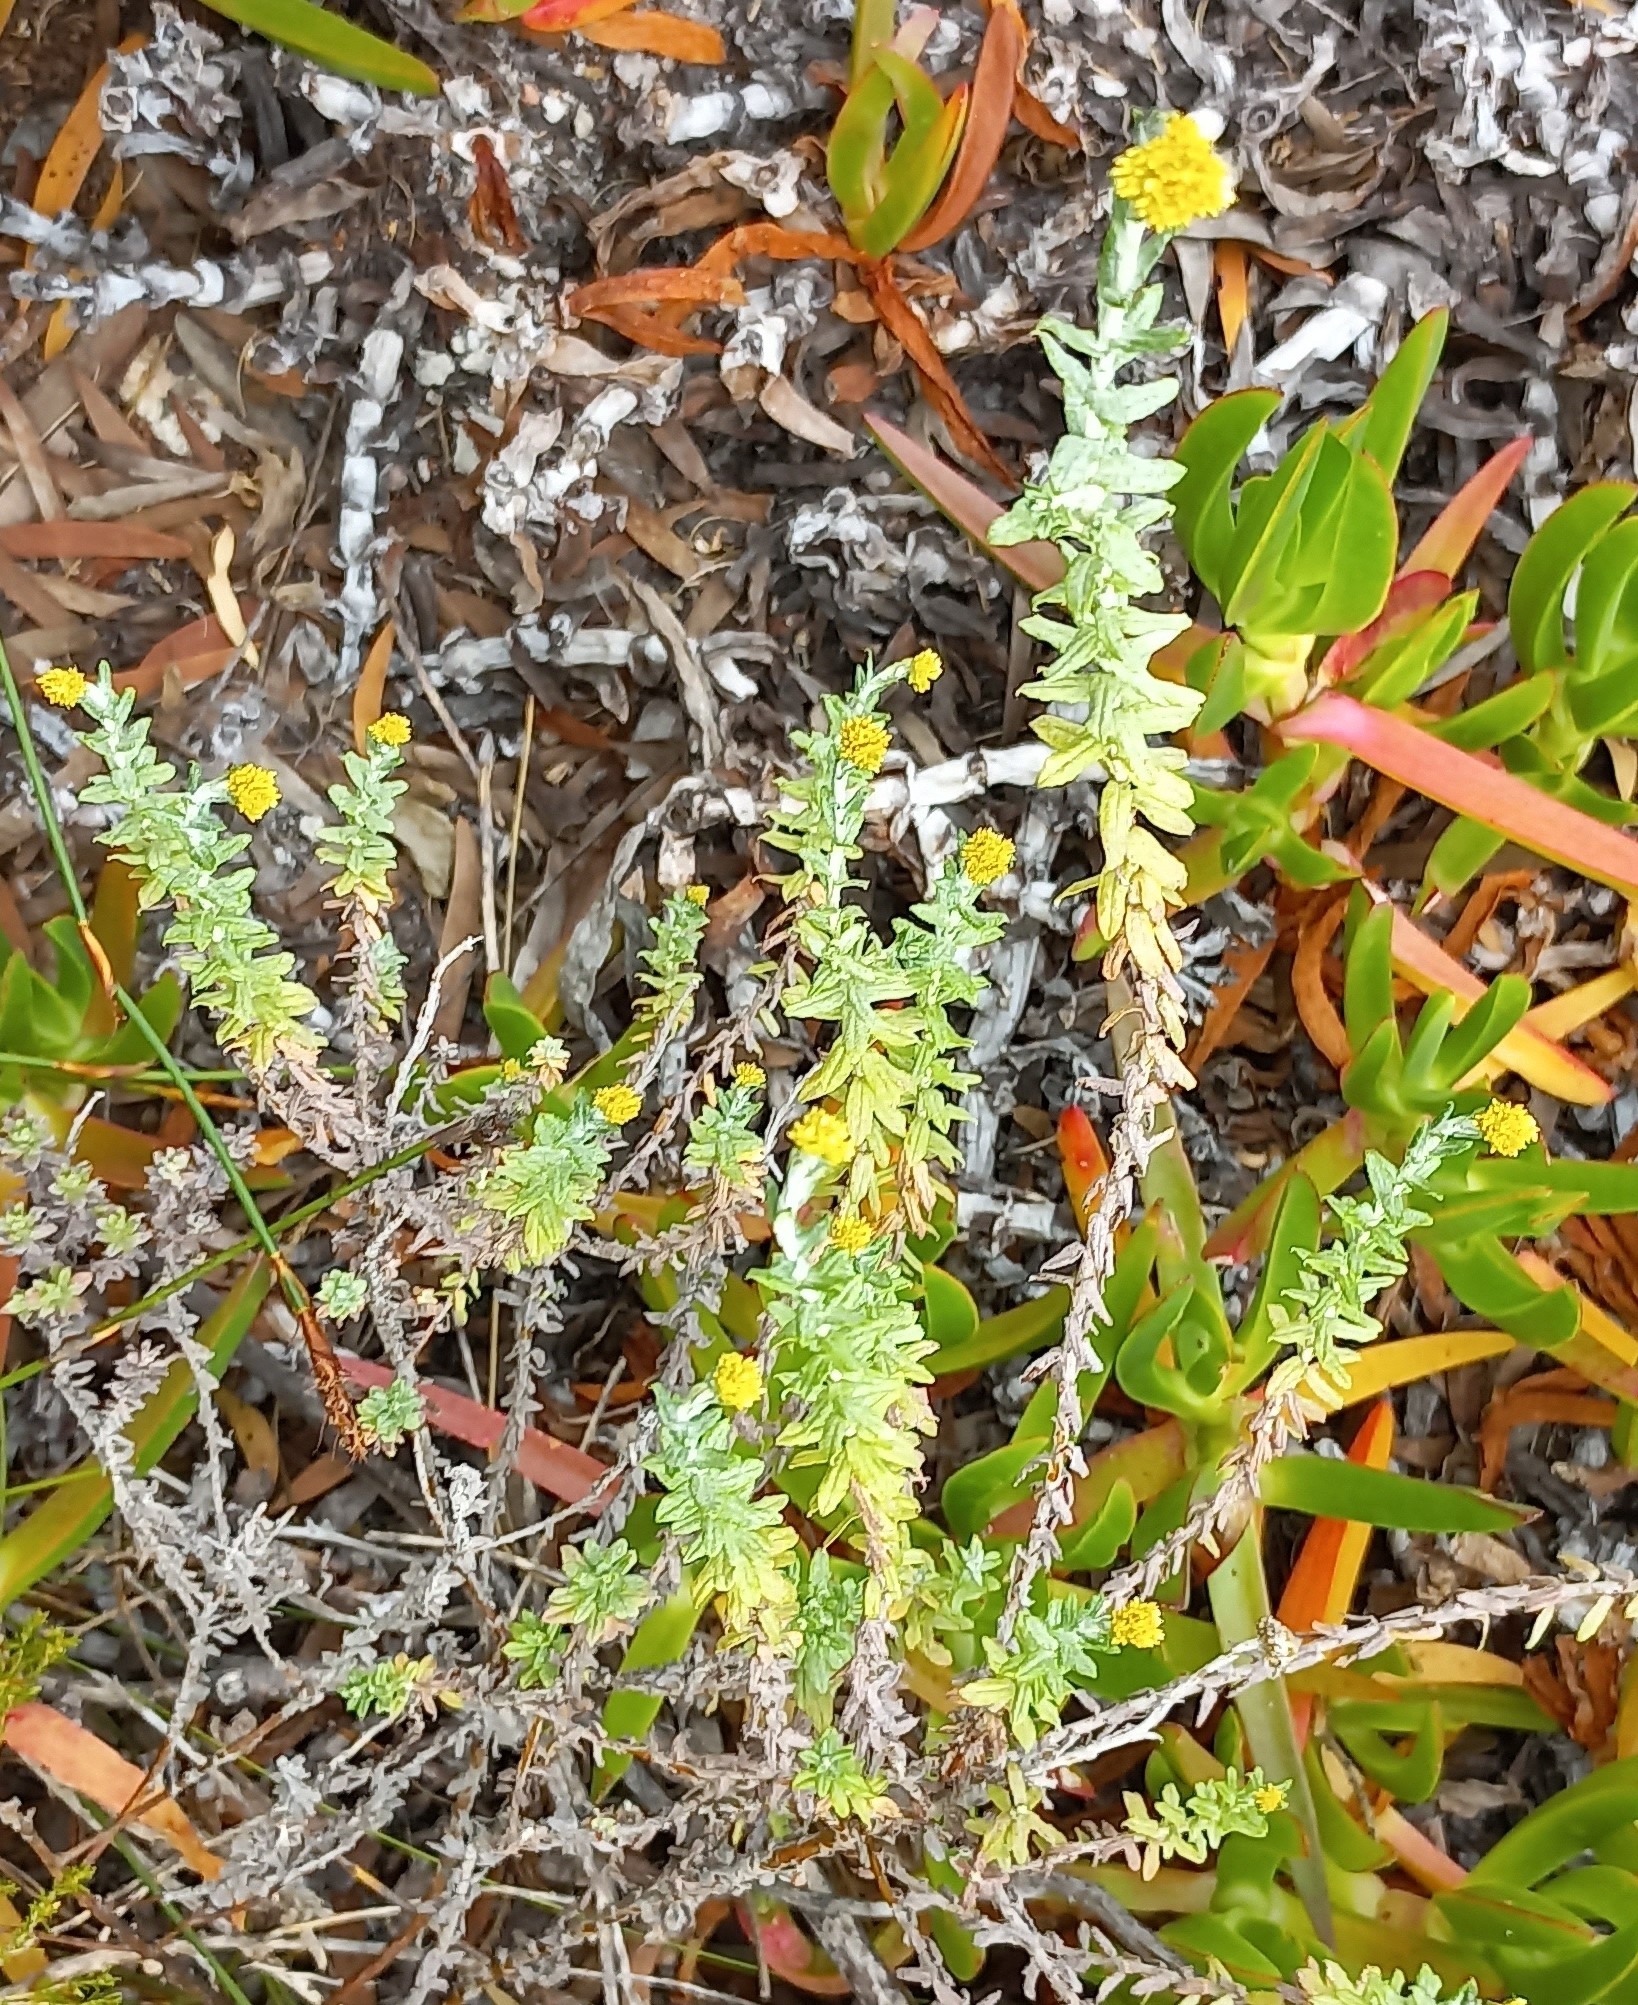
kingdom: Plantae
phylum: Tracheophyta
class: Magnoliopsida
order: Asterales
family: Asteraceae
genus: Helichrysum
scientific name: Helichrysum cymosum
